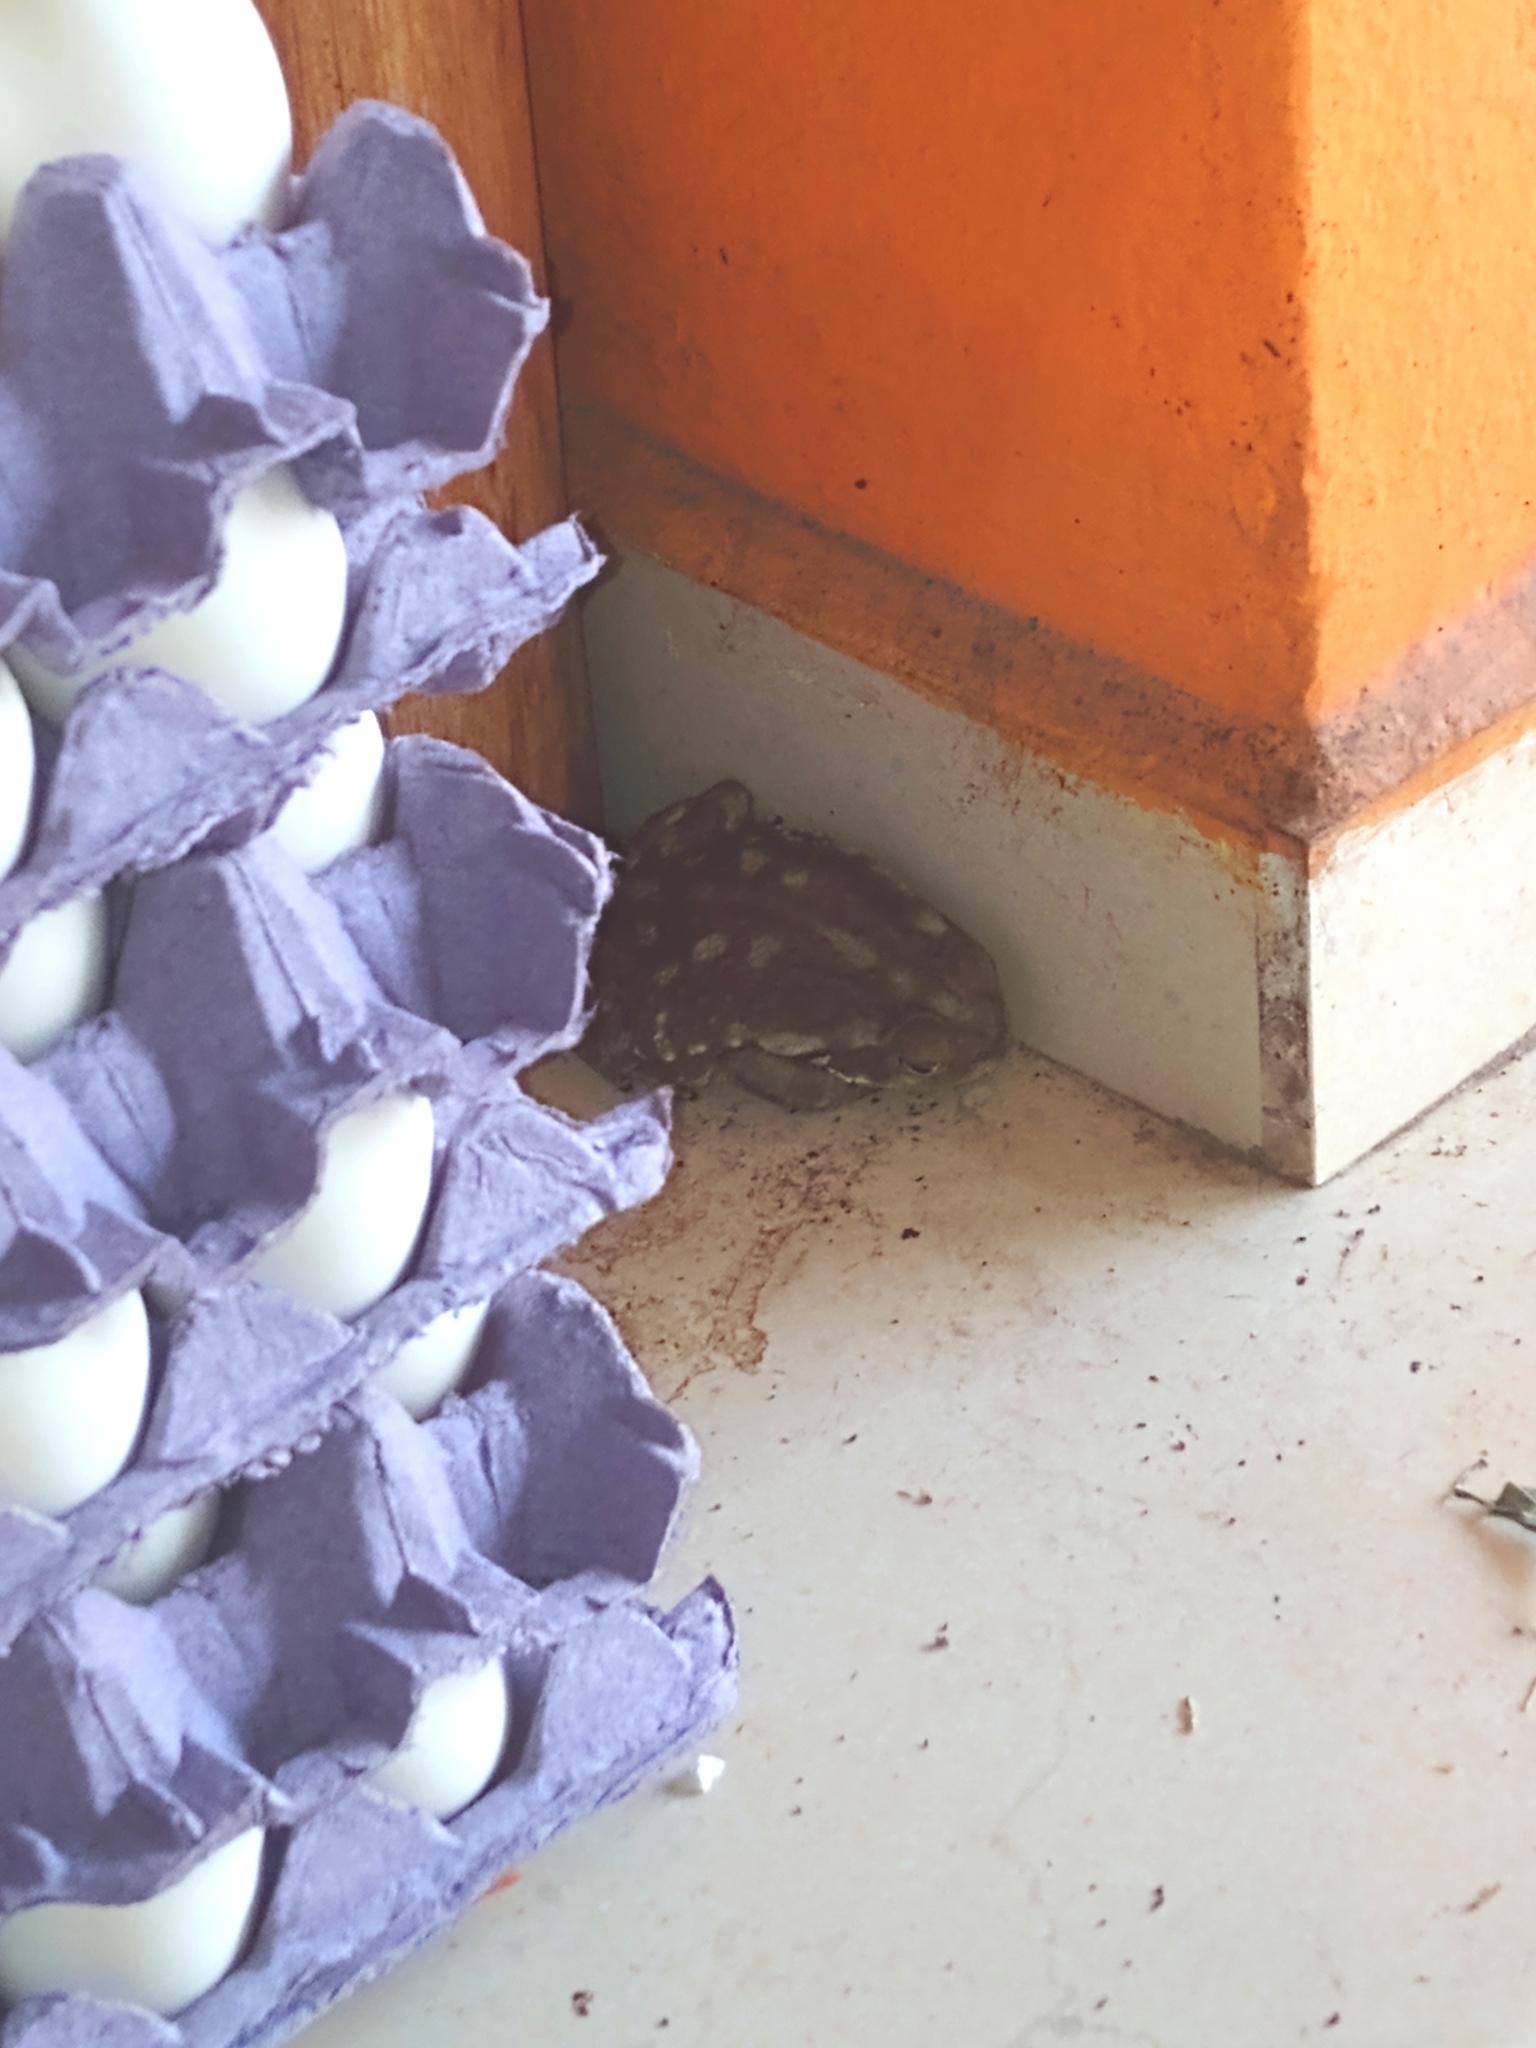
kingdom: Animalia
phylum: Chordata
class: Amphibia
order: Anura
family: Bufonidae
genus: Rhinella
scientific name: Rhinella arenarum
